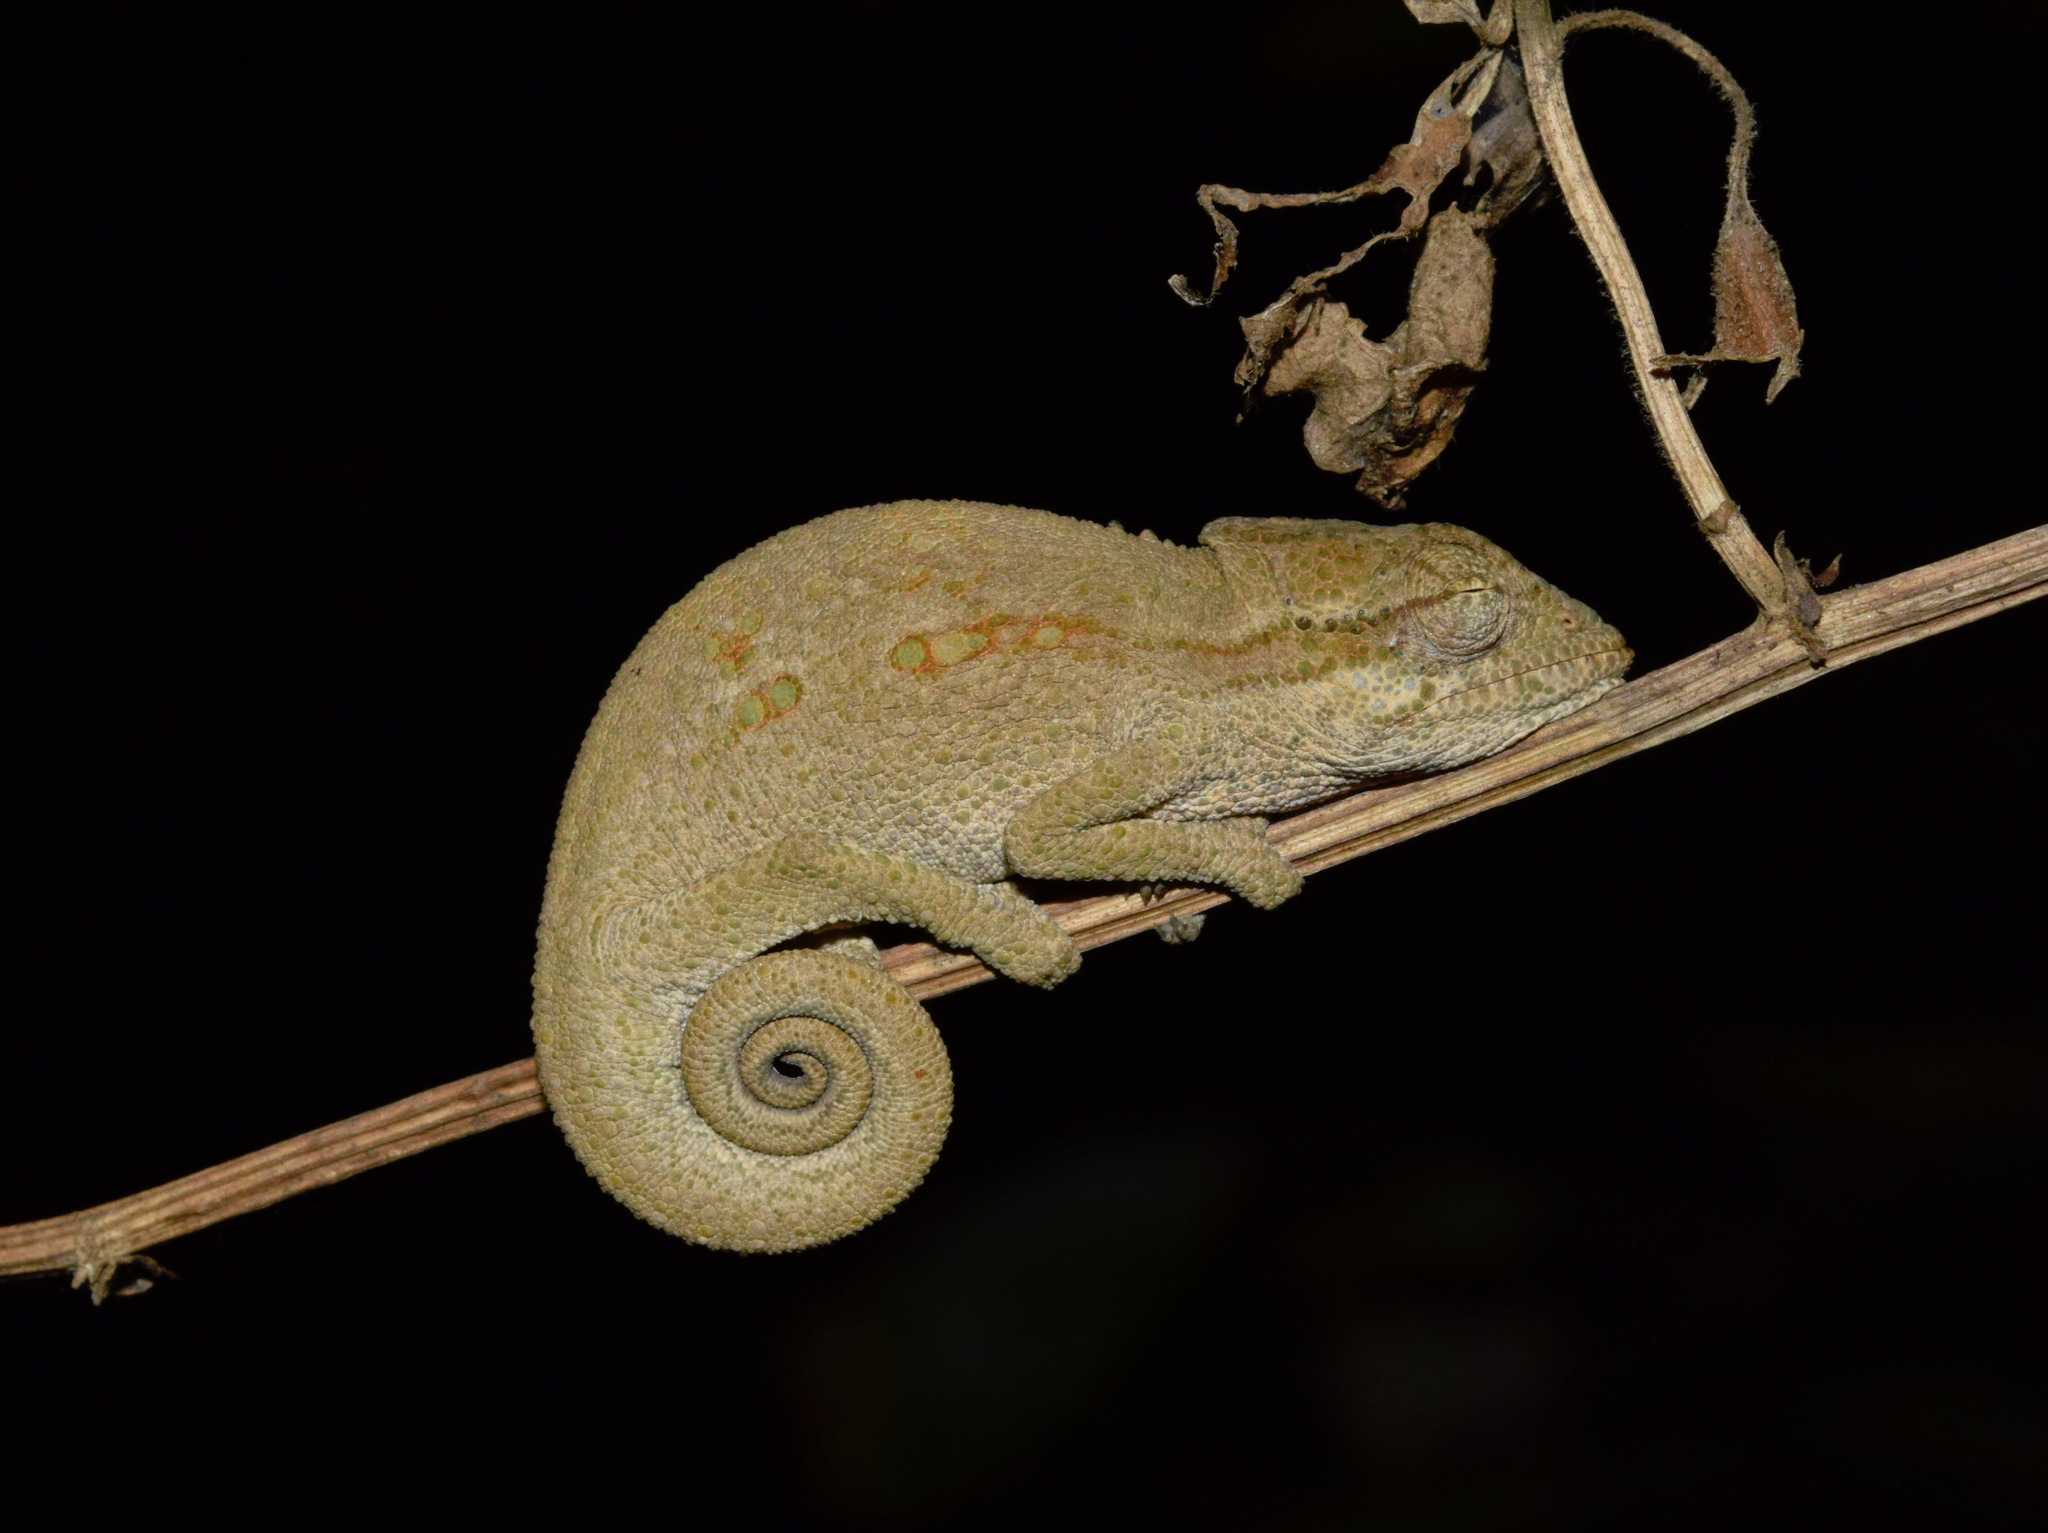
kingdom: Animalia
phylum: Chordata
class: Squamata
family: Chamaeleonidae
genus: Bradypodion
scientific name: Bradypodion melanocephalum
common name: Black-headed dwarf chameleon
